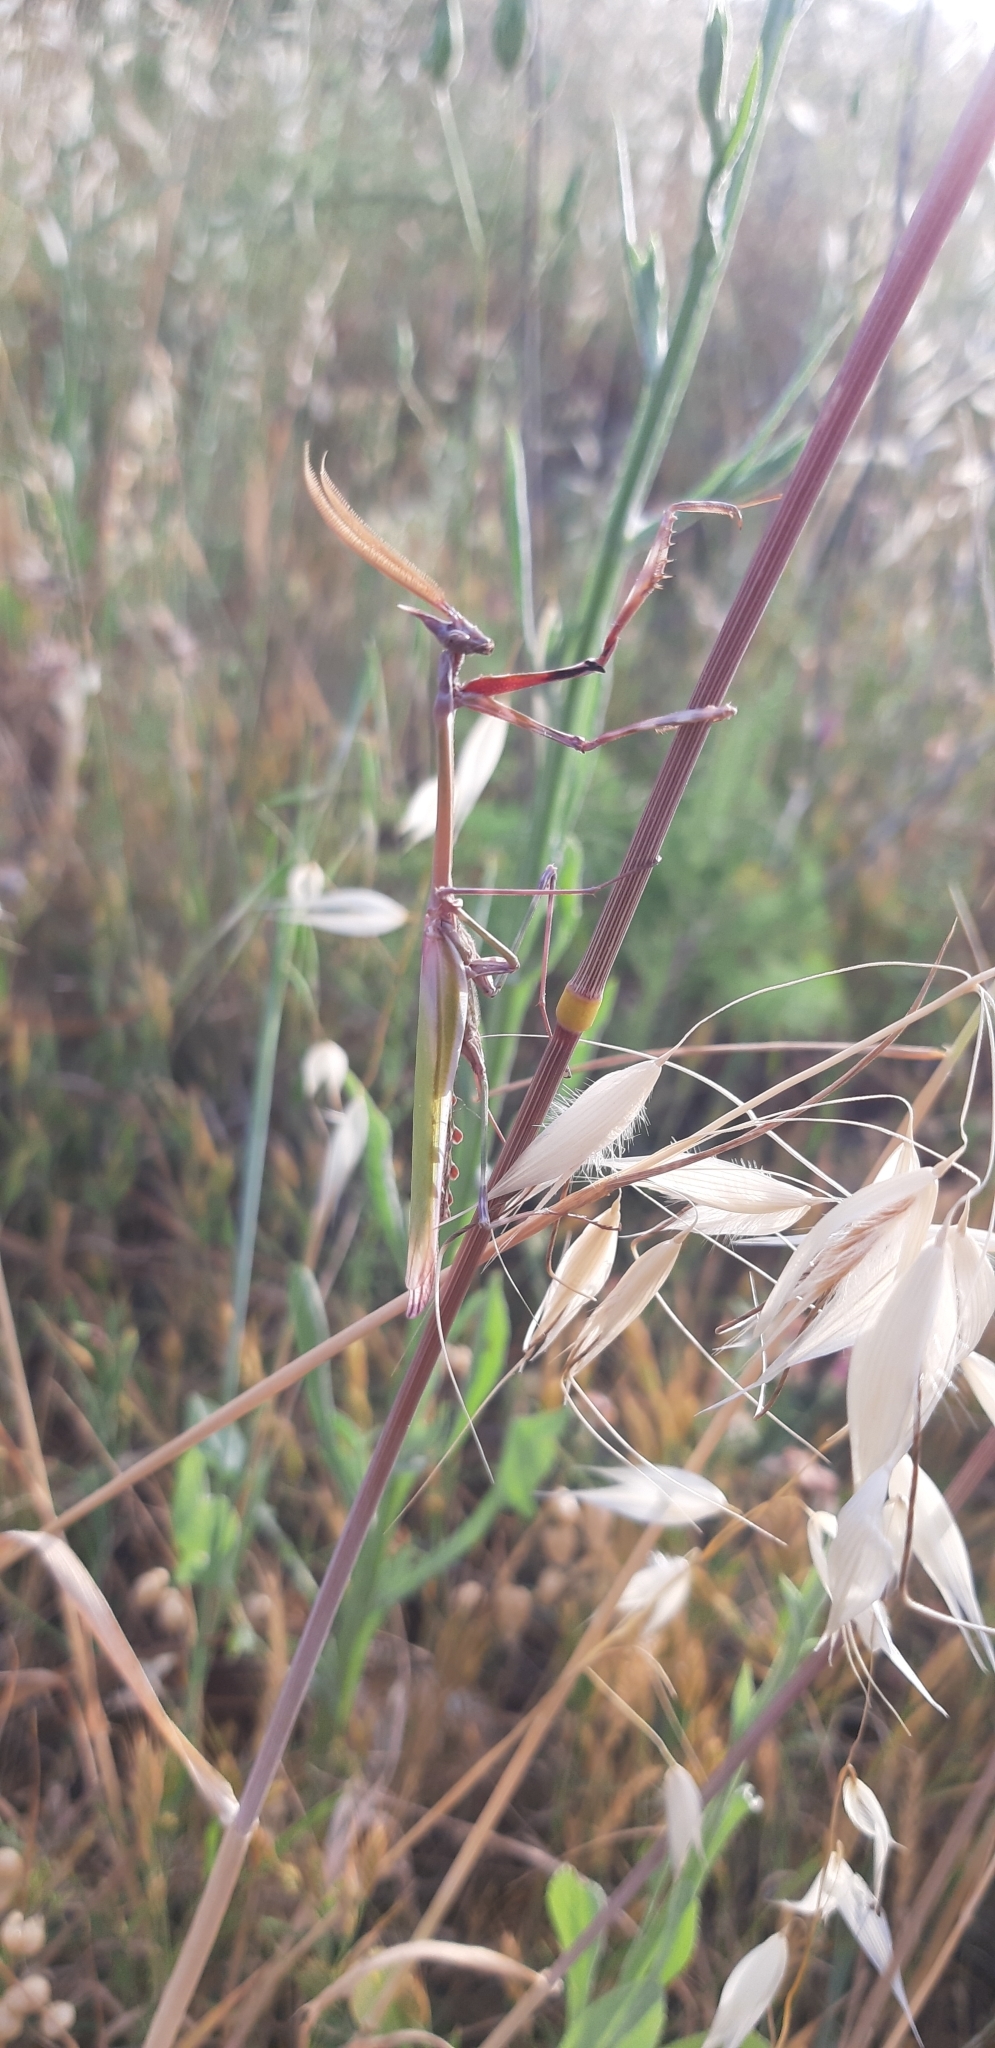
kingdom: Animalia
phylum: Arthropoda
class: Insecta
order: Mantodea
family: Empusidae
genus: Empusa
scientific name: Empusa pennata
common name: Conehead mantis
